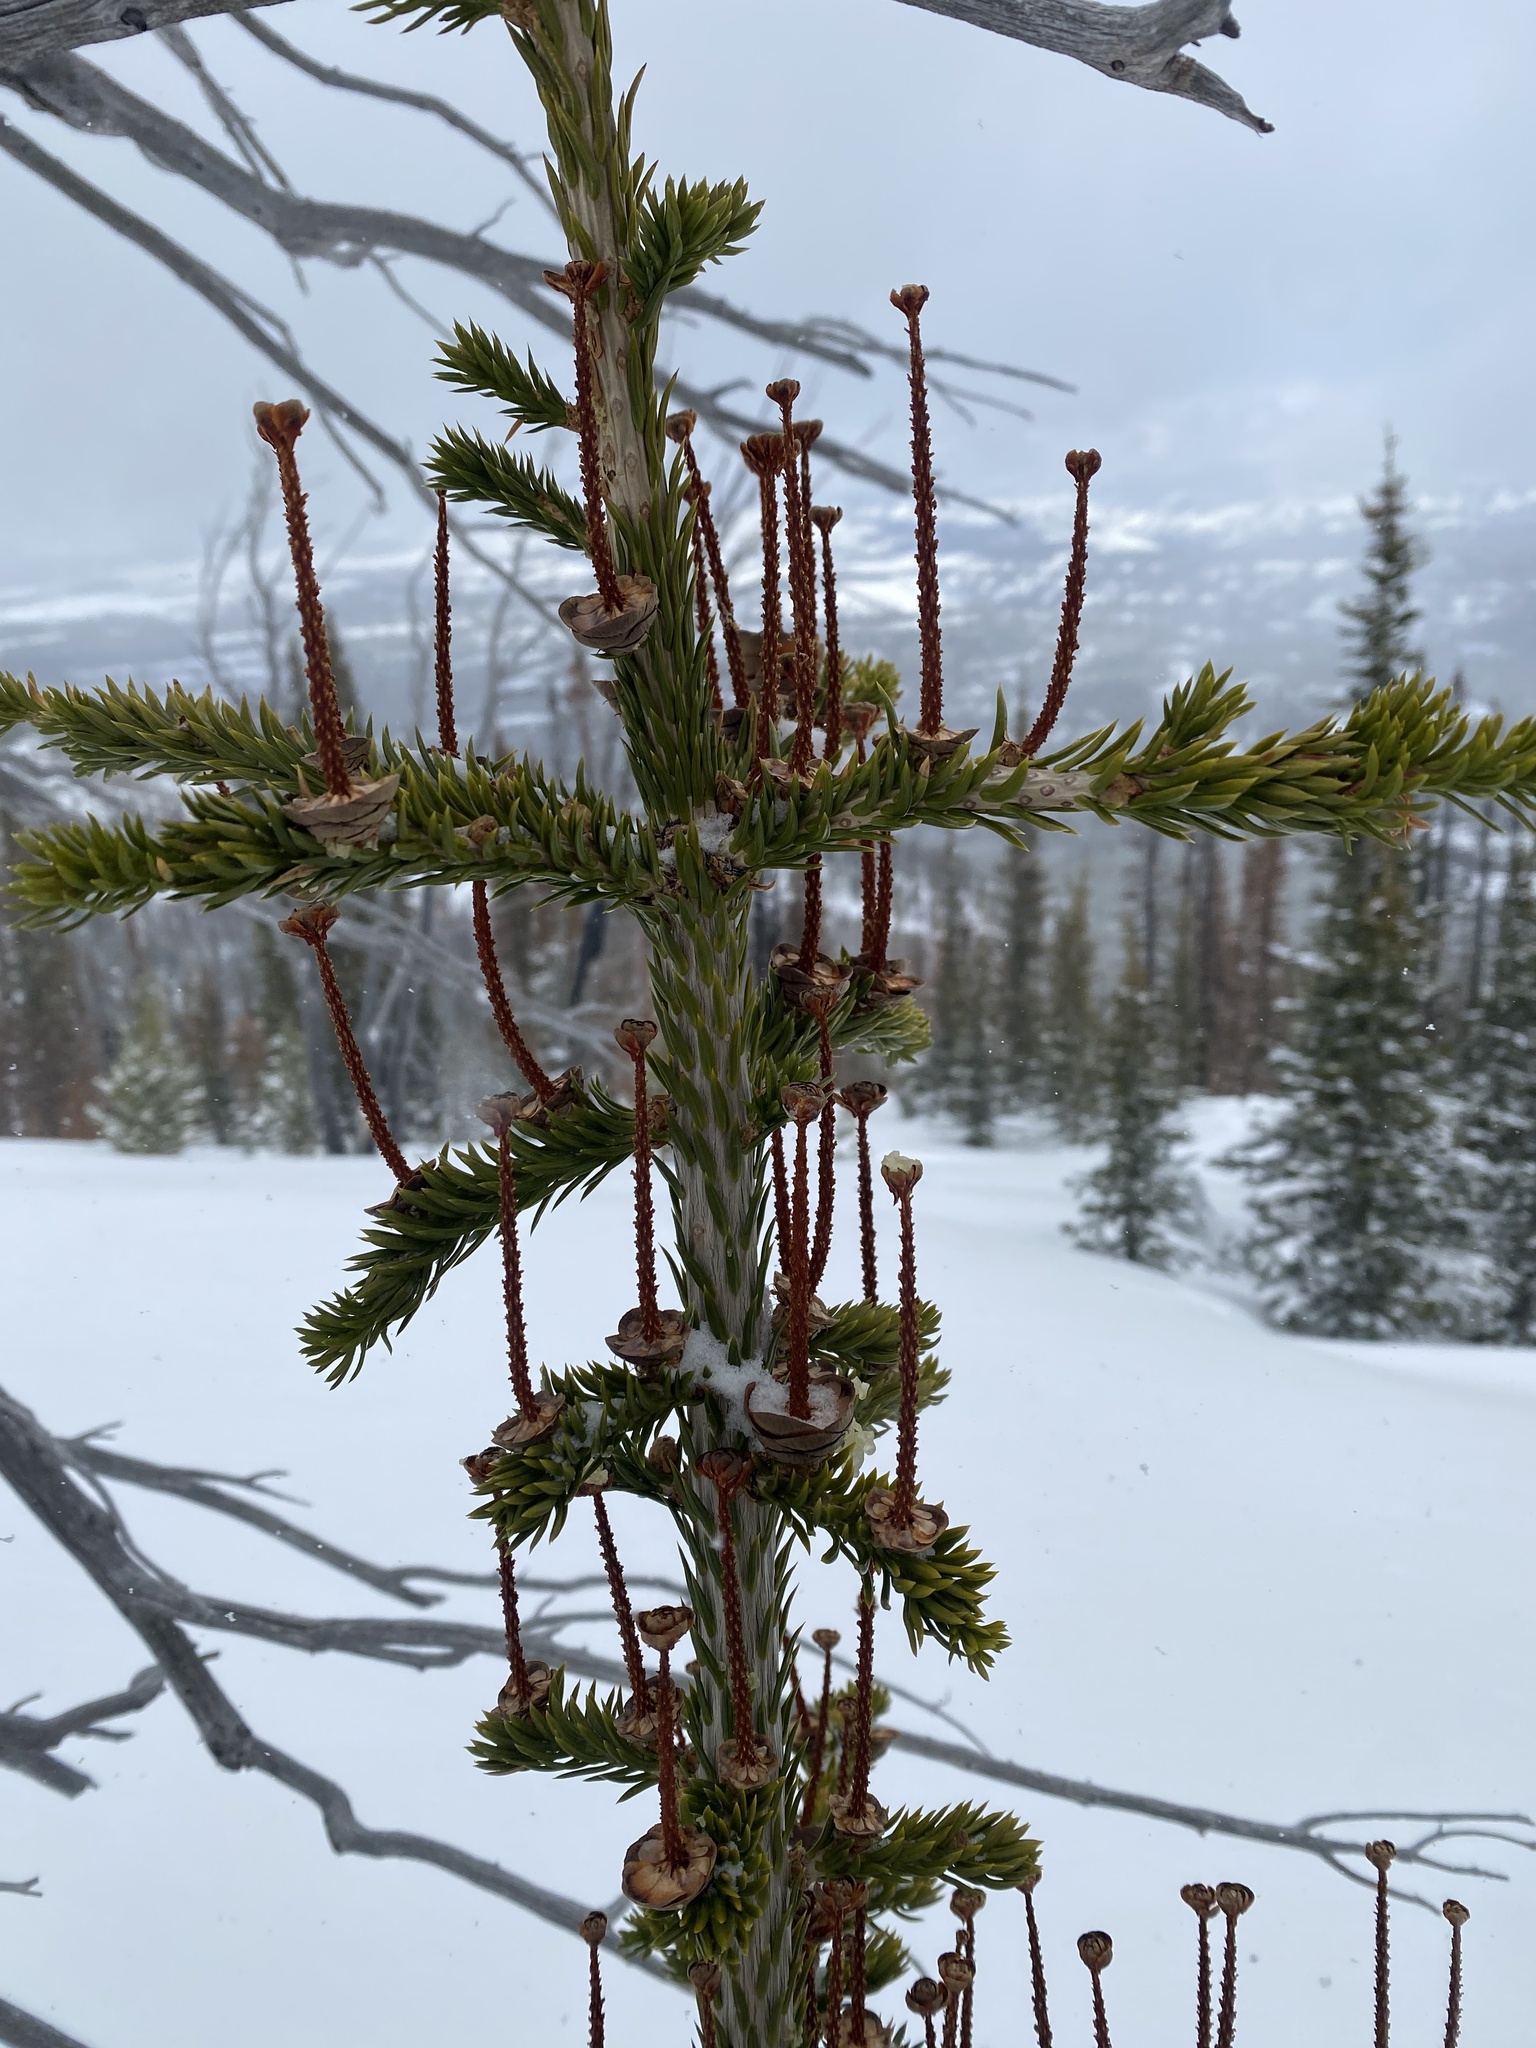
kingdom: Plantae
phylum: Tracheophyta
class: Pinopsida
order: Pinales
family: Pinaceae
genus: Abies
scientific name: Abies lasiocarpa
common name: Subalpine fir
